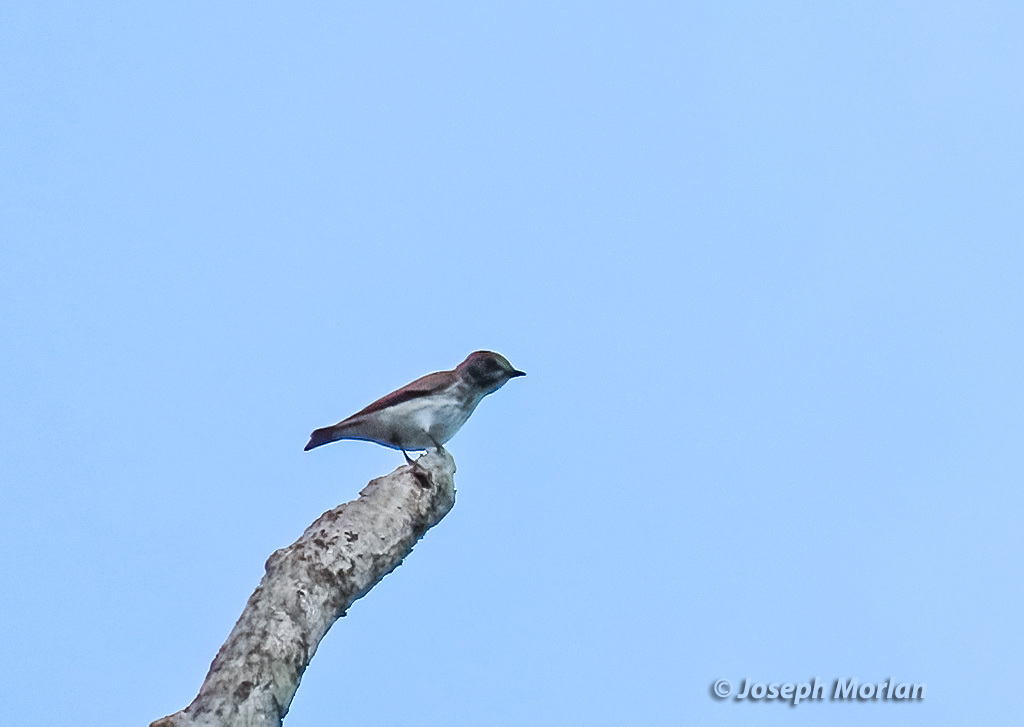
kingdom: Animalia
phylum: Chordata
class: Aves
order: Passeriformes
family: Muscicapidae
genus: Muscicapa
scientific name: Muscicapa griseisticta
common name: Gray-streaked flycatcher
